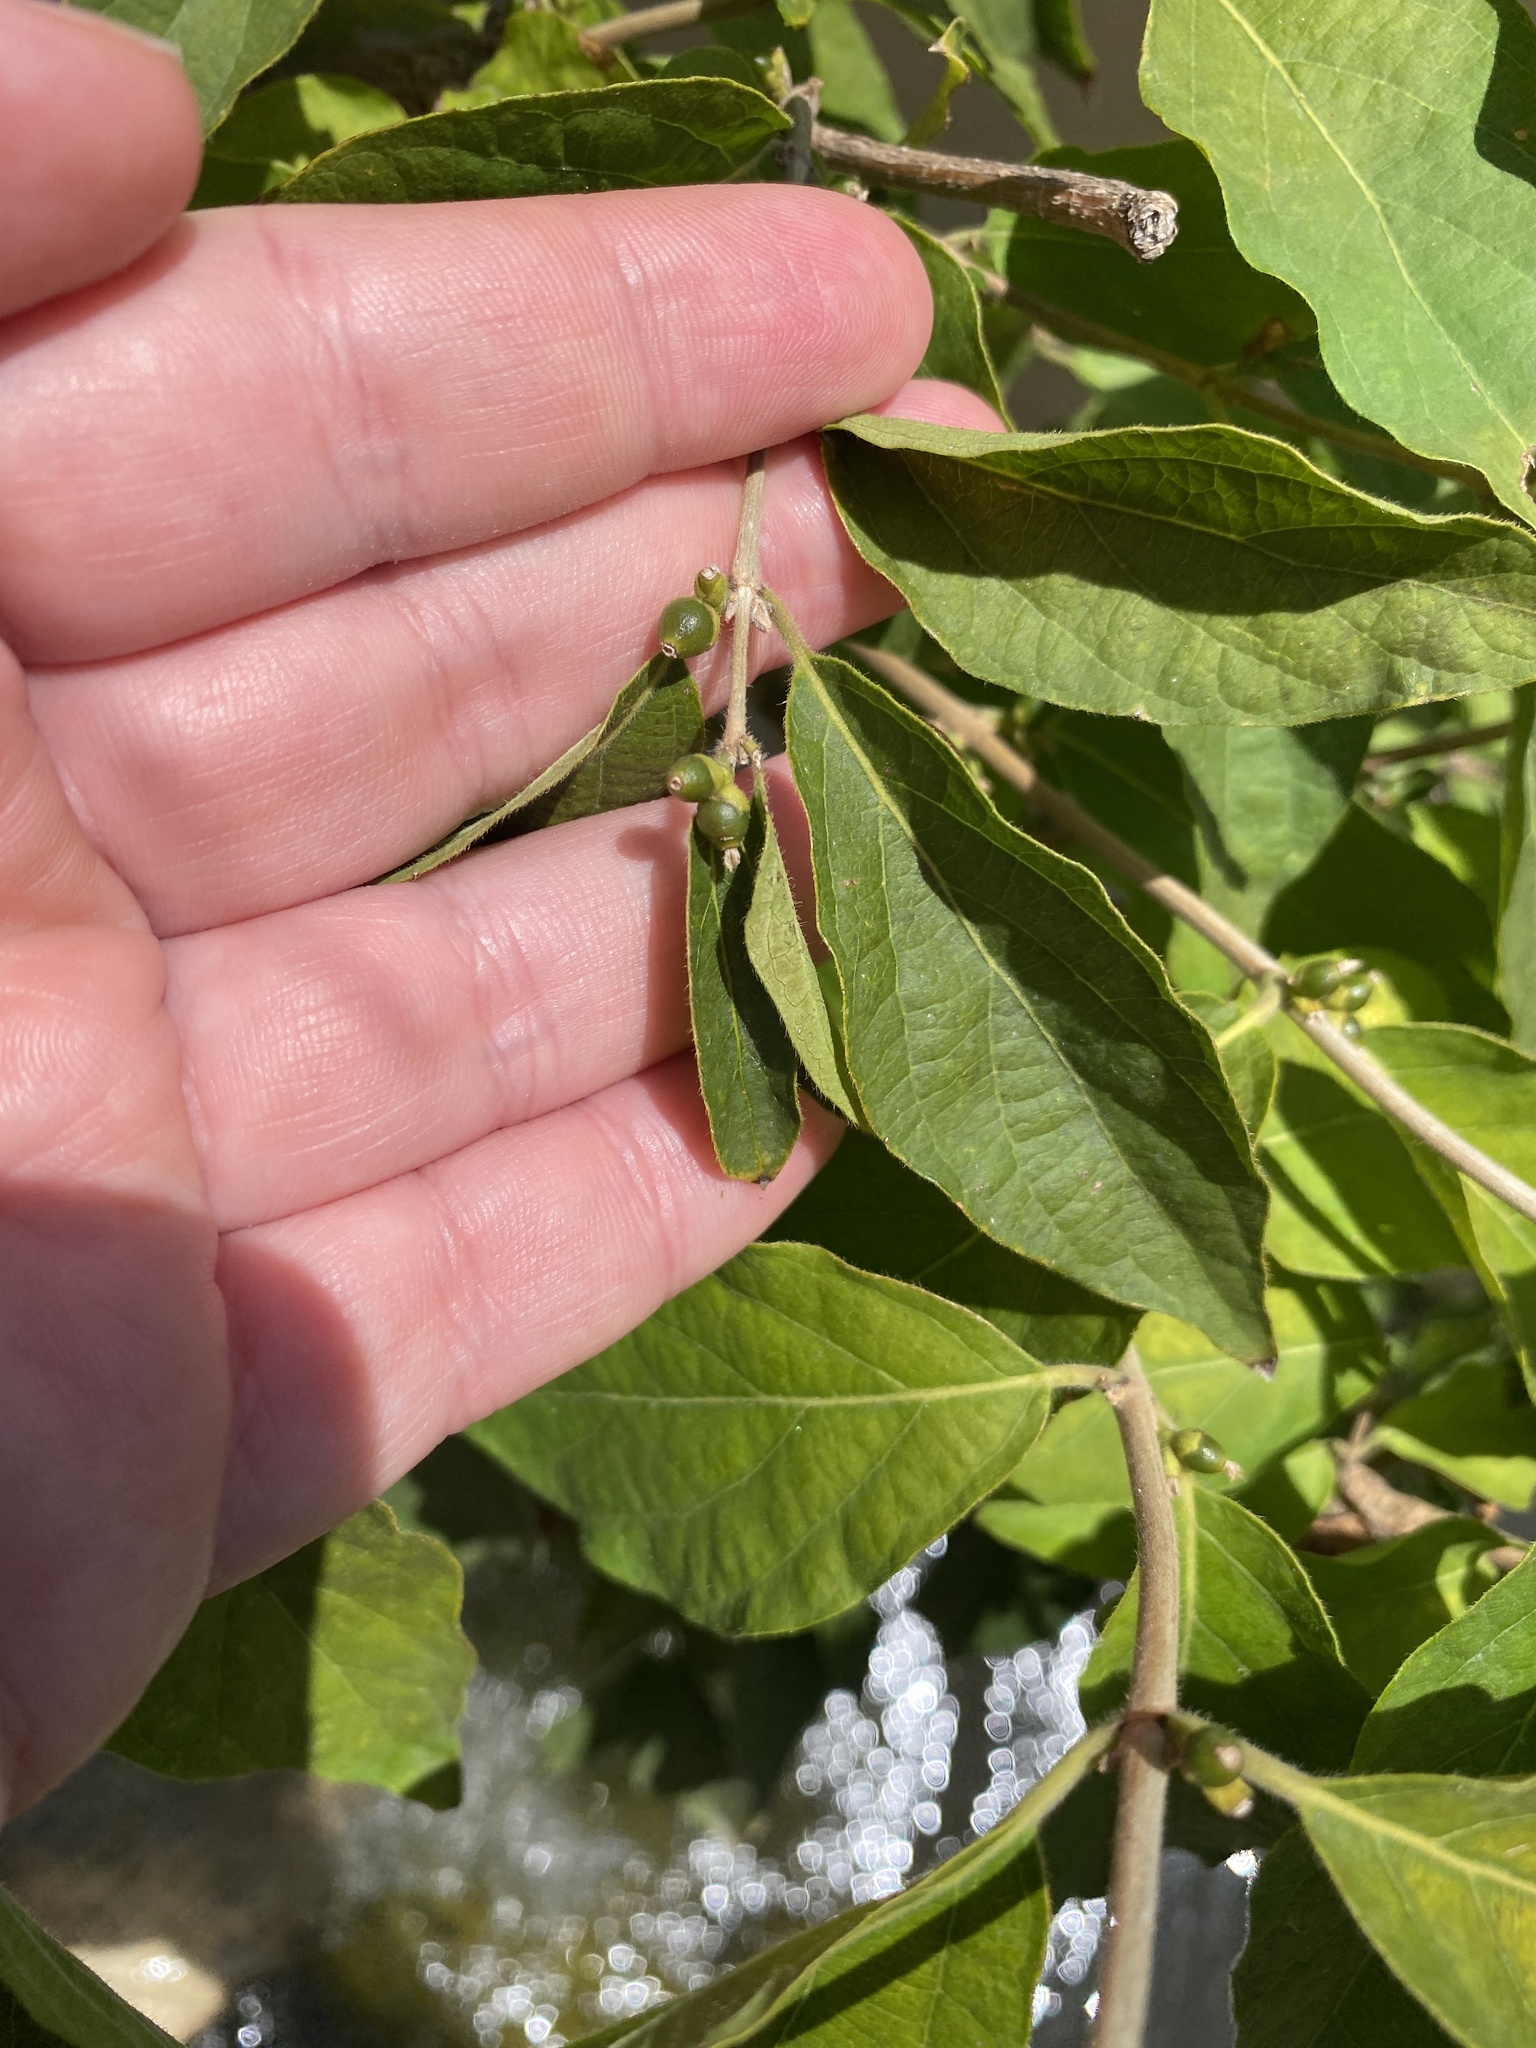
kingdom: Plantae
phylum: Tracheophyta
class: Magnoliopsida
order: Dipsacales
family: Caprifoliaceae
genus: Lonicera
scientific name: Lonicera maackii
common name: Amur honeysuckle
